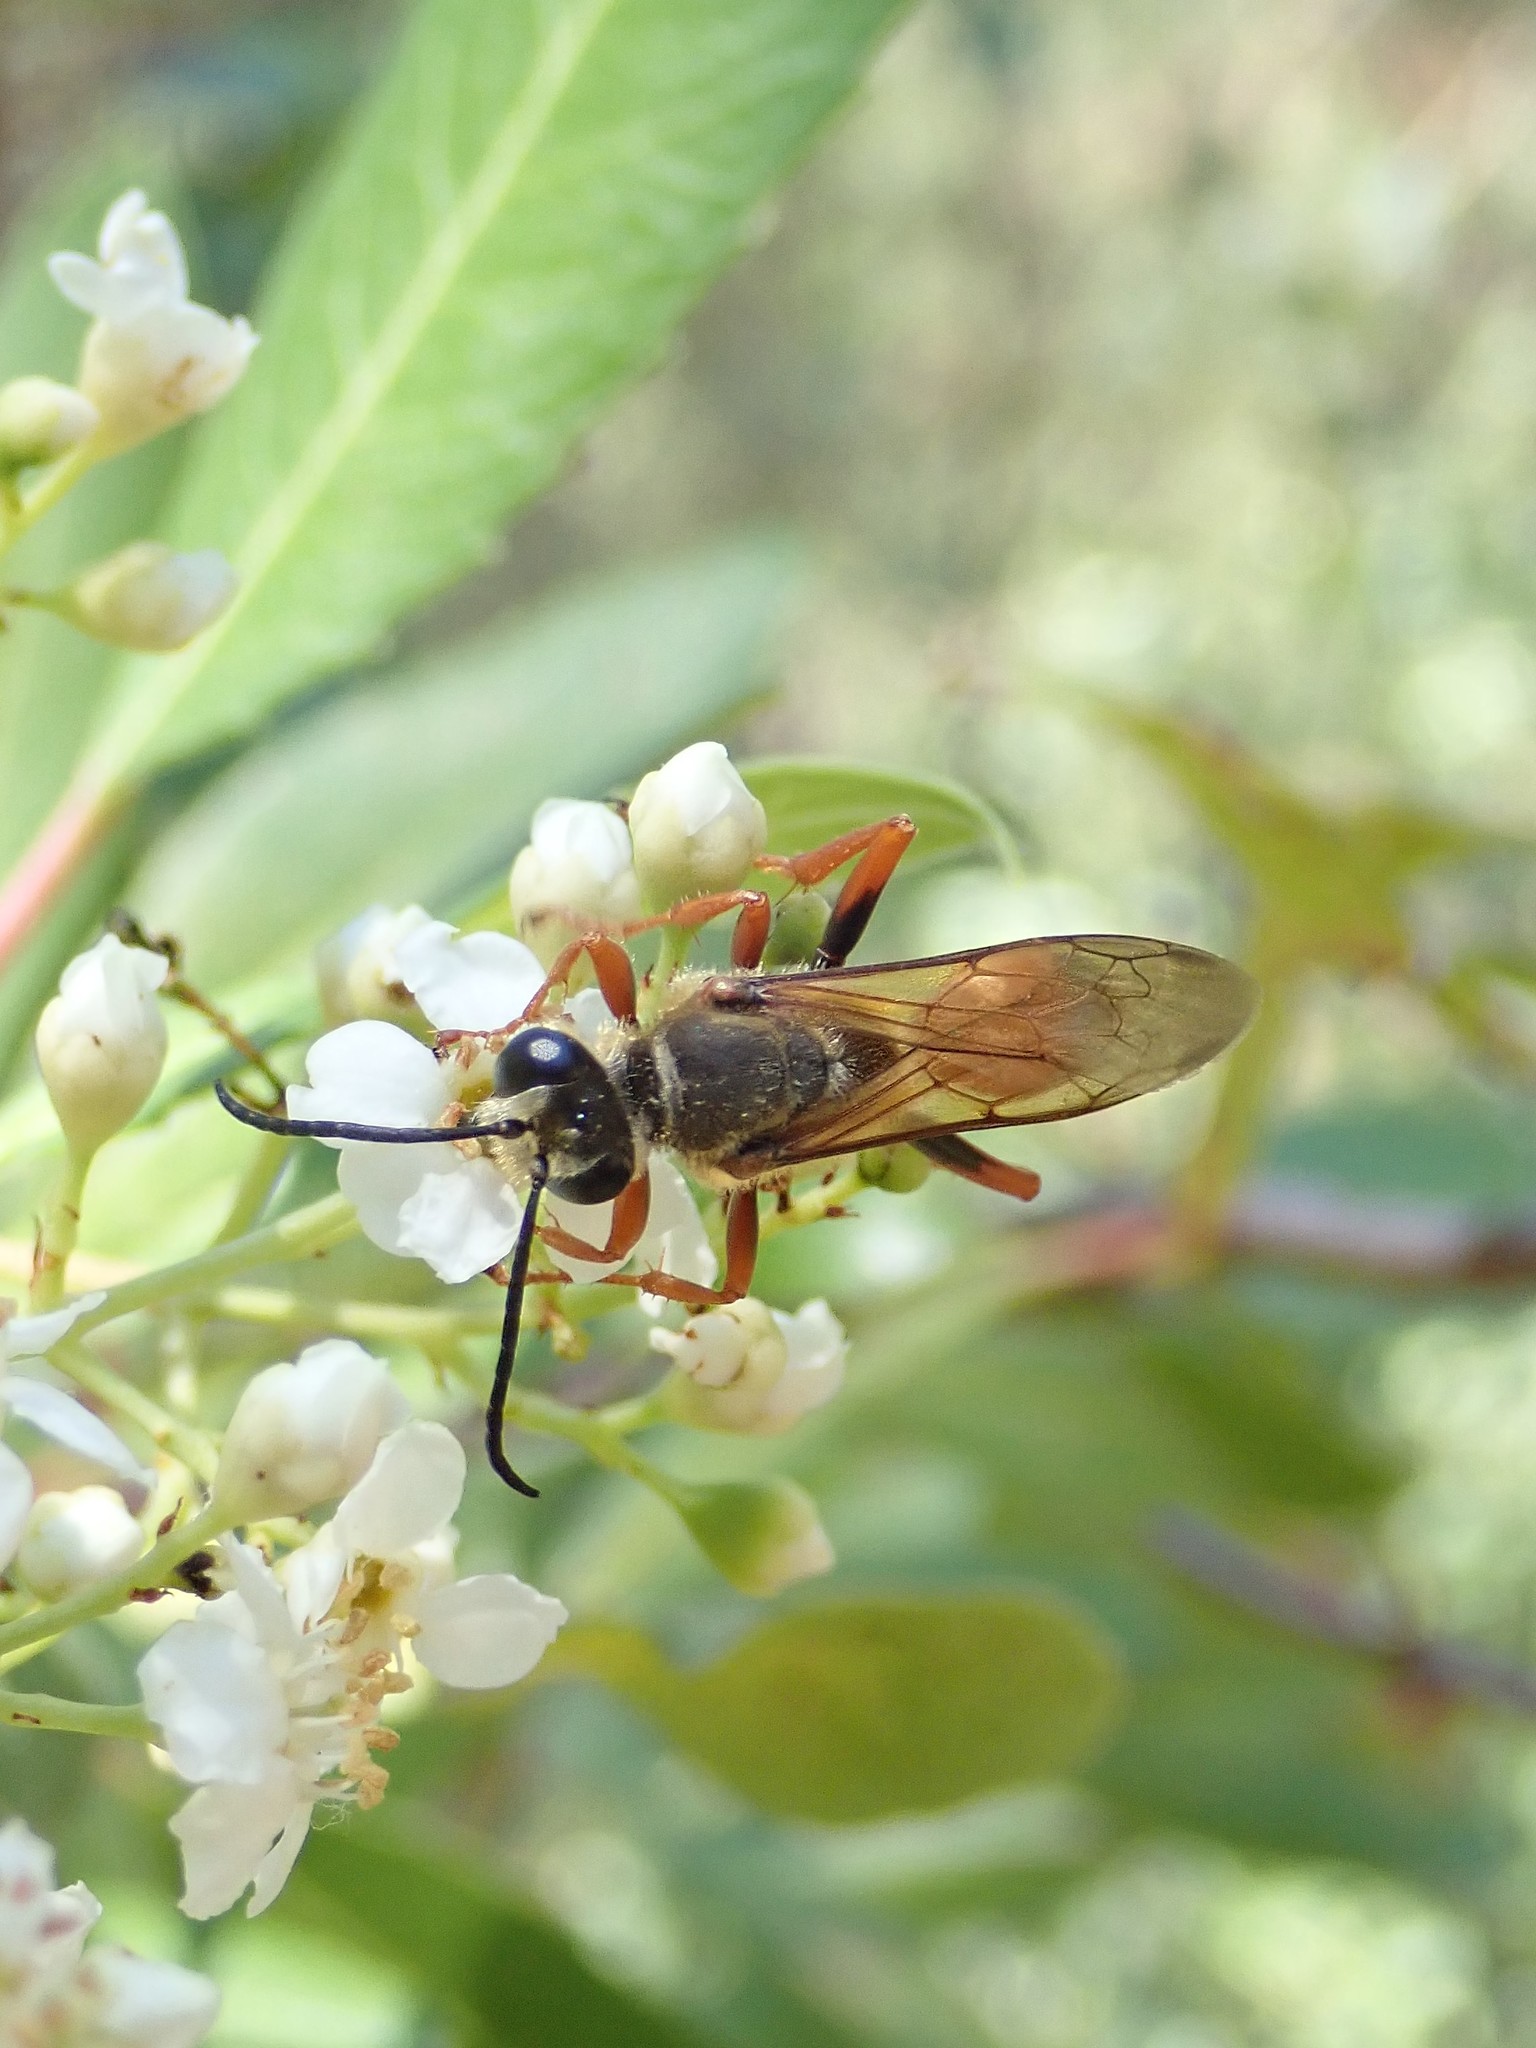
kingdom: Animalia
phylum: Arthropoda
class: Insecta
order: Hymenoptera
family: Sphecidae
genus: Sphex
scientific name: Sphex ichneumoneus
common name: Great golden digger wasp
